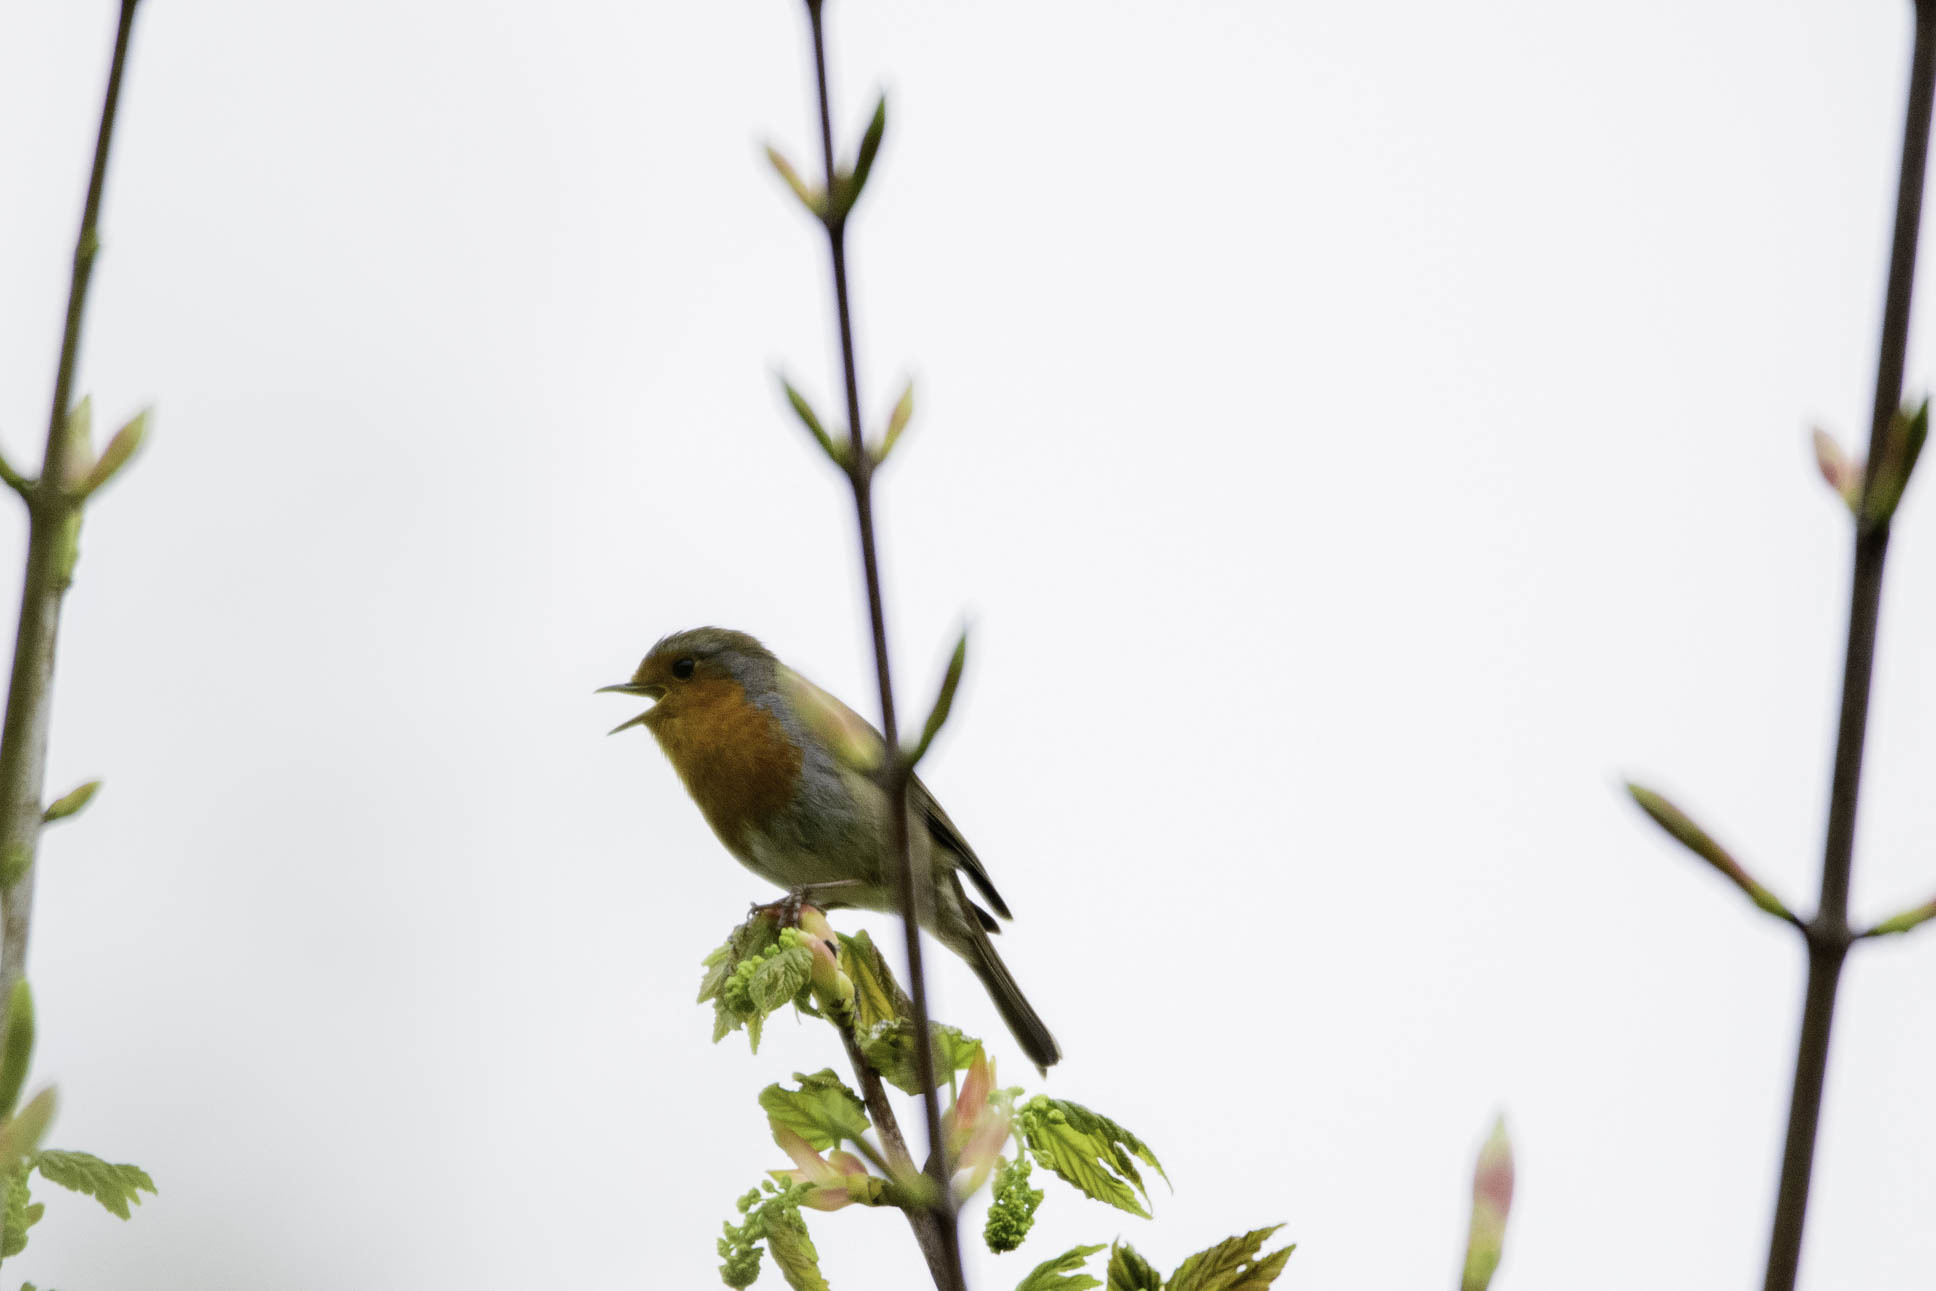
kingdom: Animalia
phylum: Chordata
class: Aves
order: Passeriformes
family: Muscicapidae
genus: Erithacus
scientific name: Erithacus rubecula
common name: European robin
